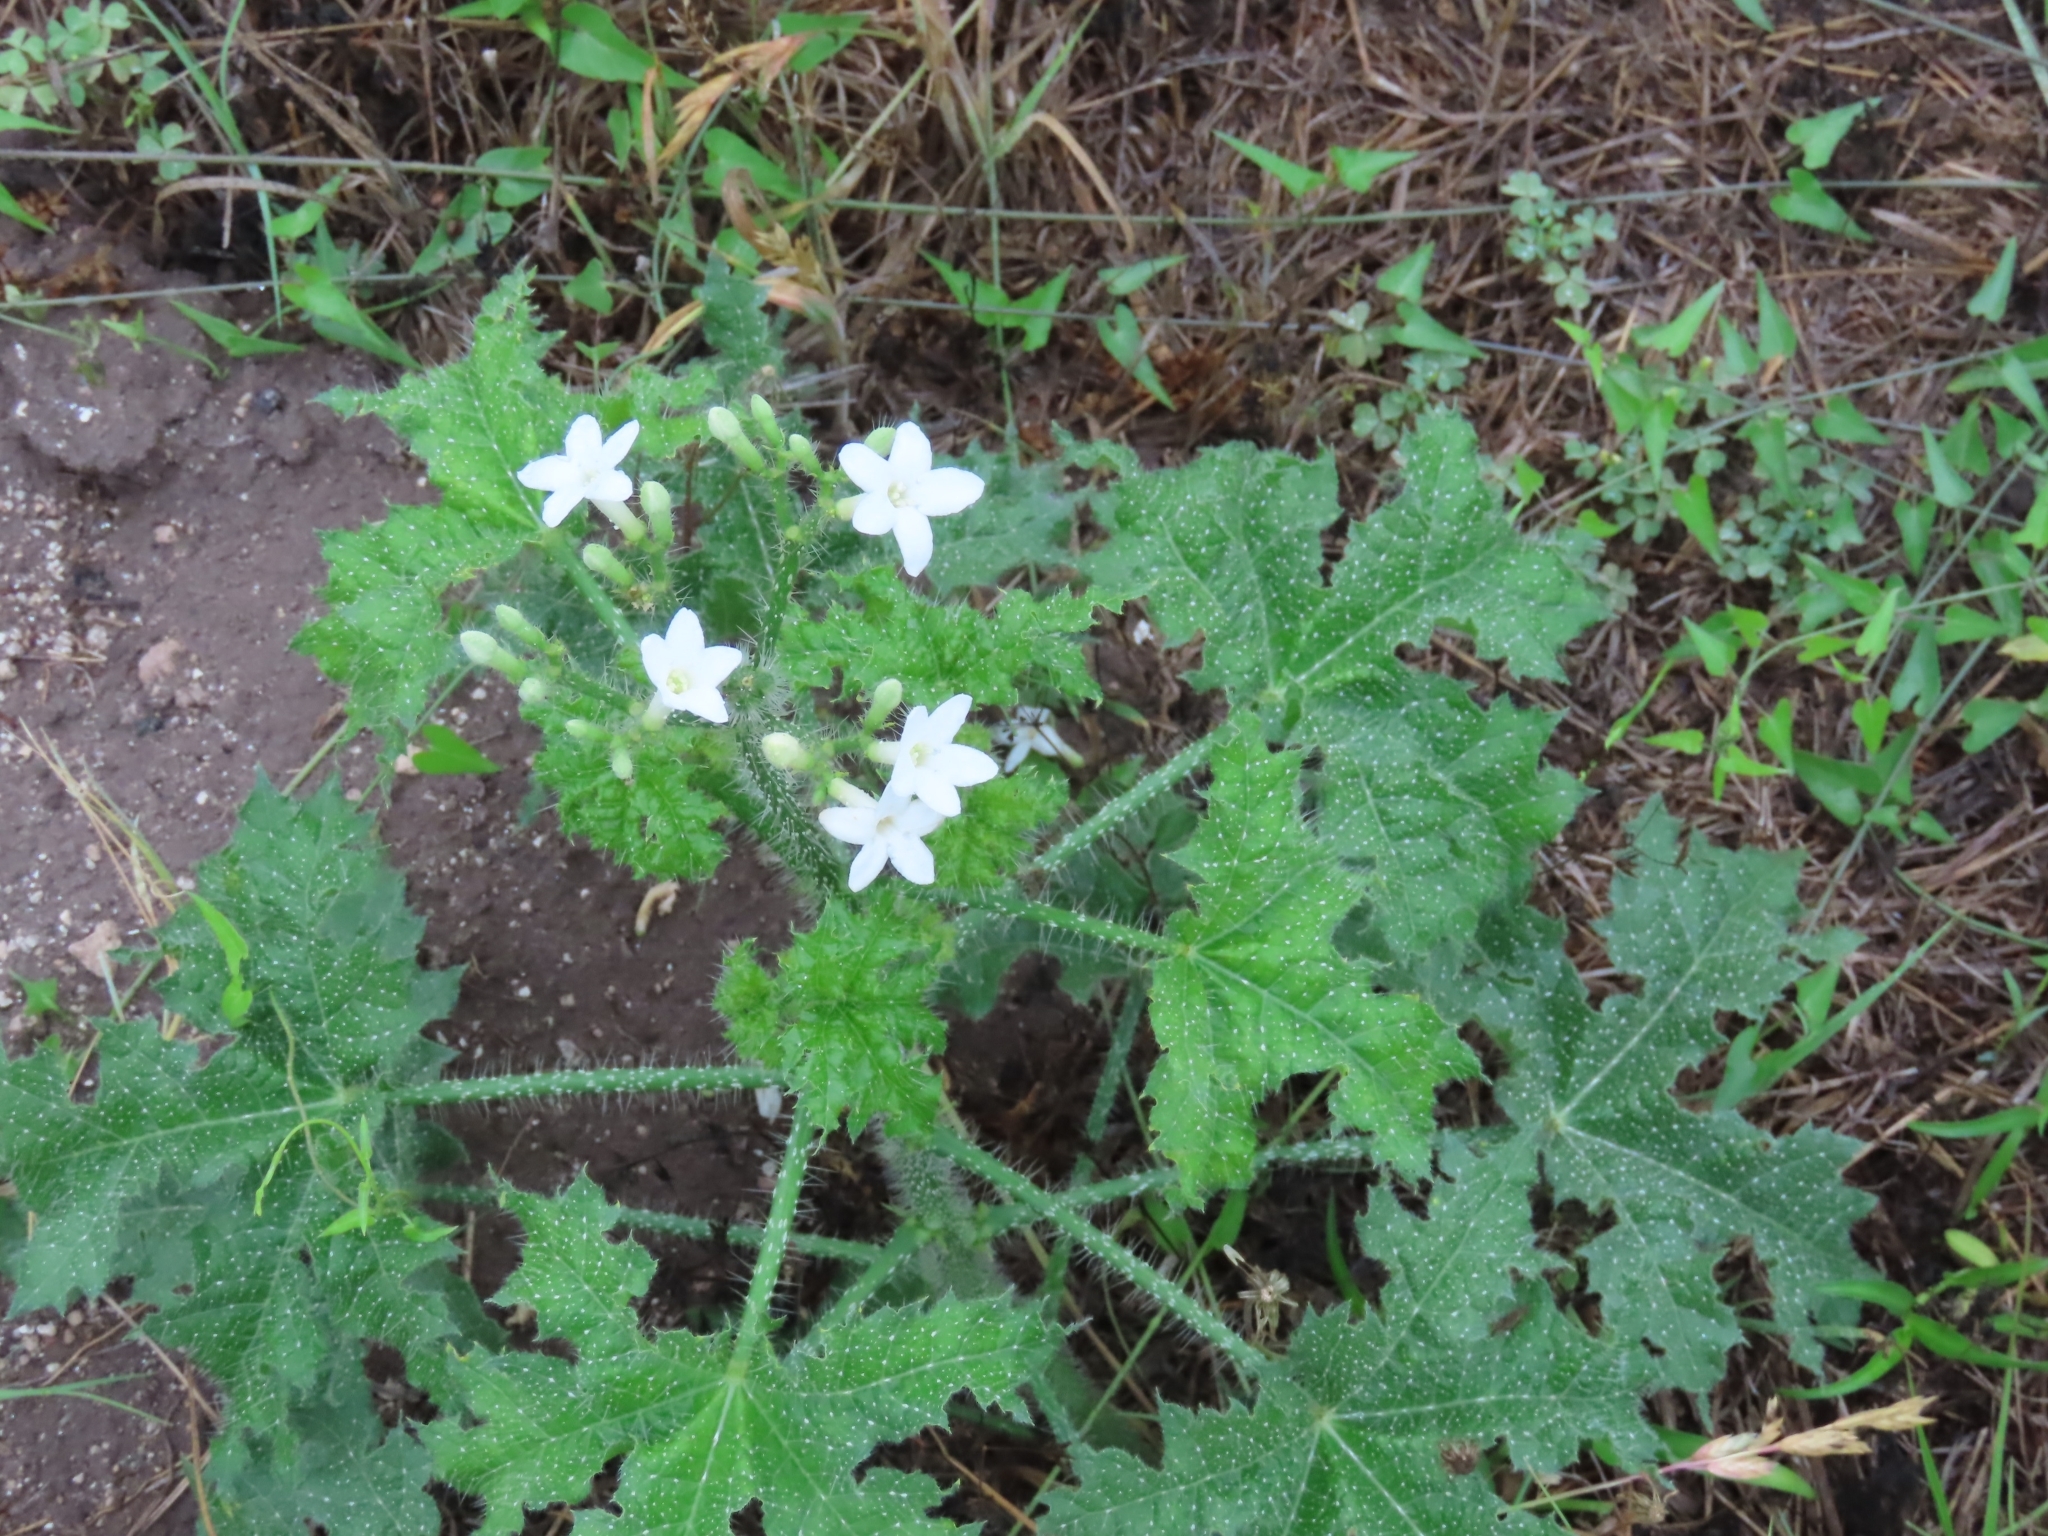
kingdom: Plantae
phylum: Tracheophyta
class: Magnoliopsida
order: Malpighiales
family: Euphorbiaceae
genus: Cnidoscolus
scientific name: Cnidoscolus texanus
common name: Texas bull-nettle
